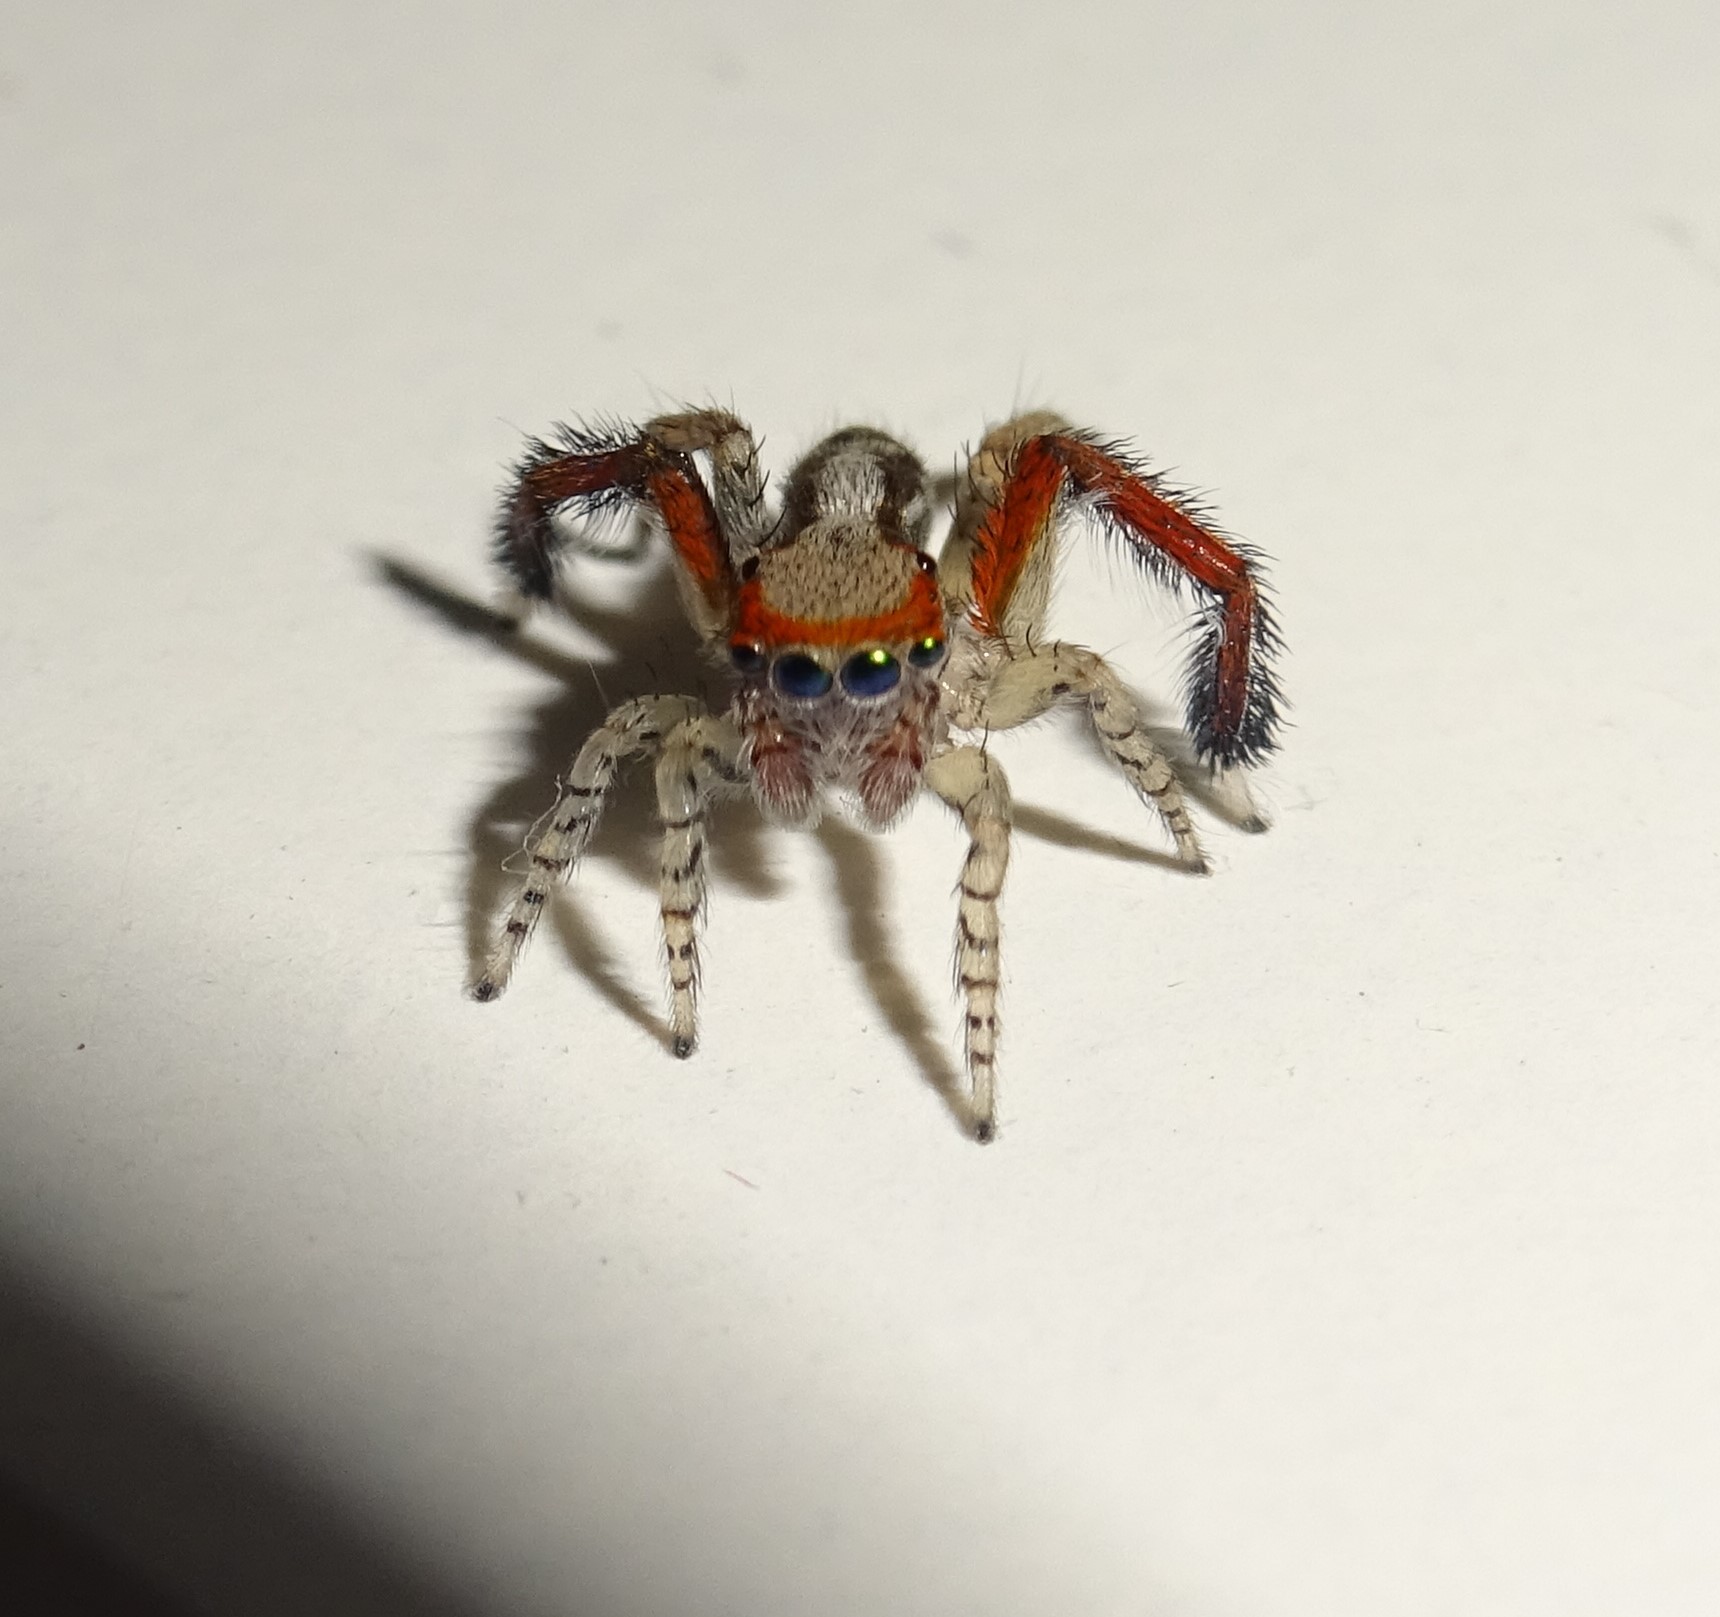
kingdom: Animalia
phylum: Arthropoda
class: Arachnida
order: Araneae
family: Salticidae
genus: Saitis
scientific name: Saitis barbipes
